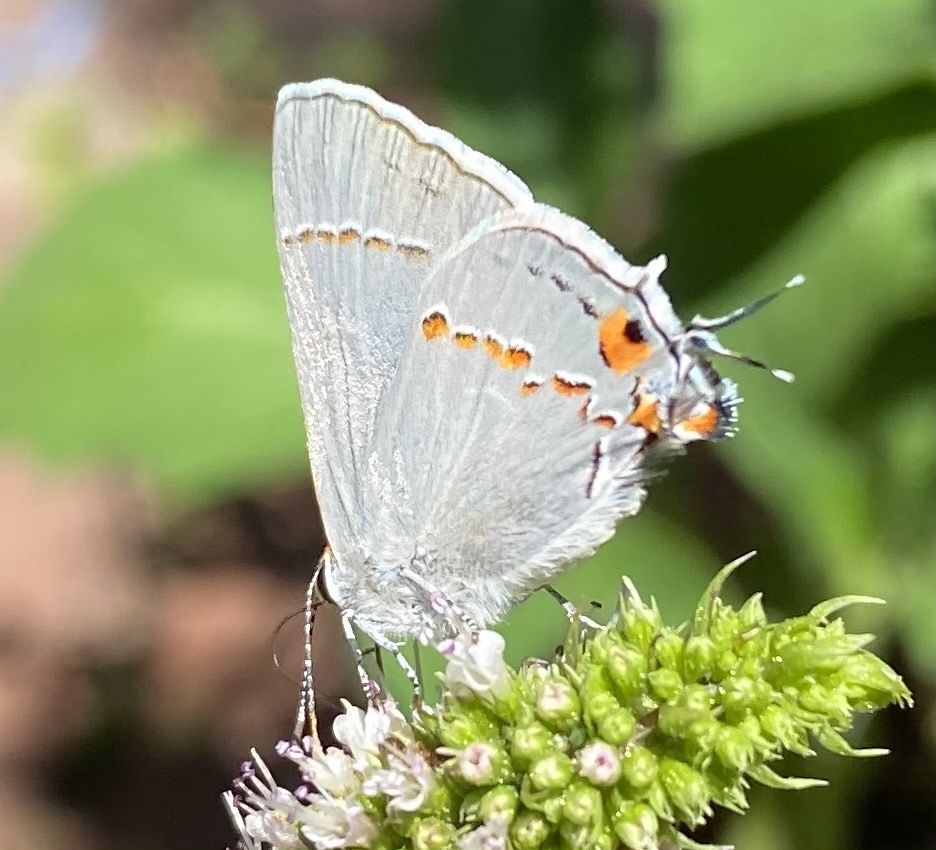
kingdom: Animalia
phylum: Arthropoda
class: Insecta
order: Lepidoptera
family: Lycaenidae
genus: Strymon
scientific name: Strymon melinus
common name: Gray hairstreak
